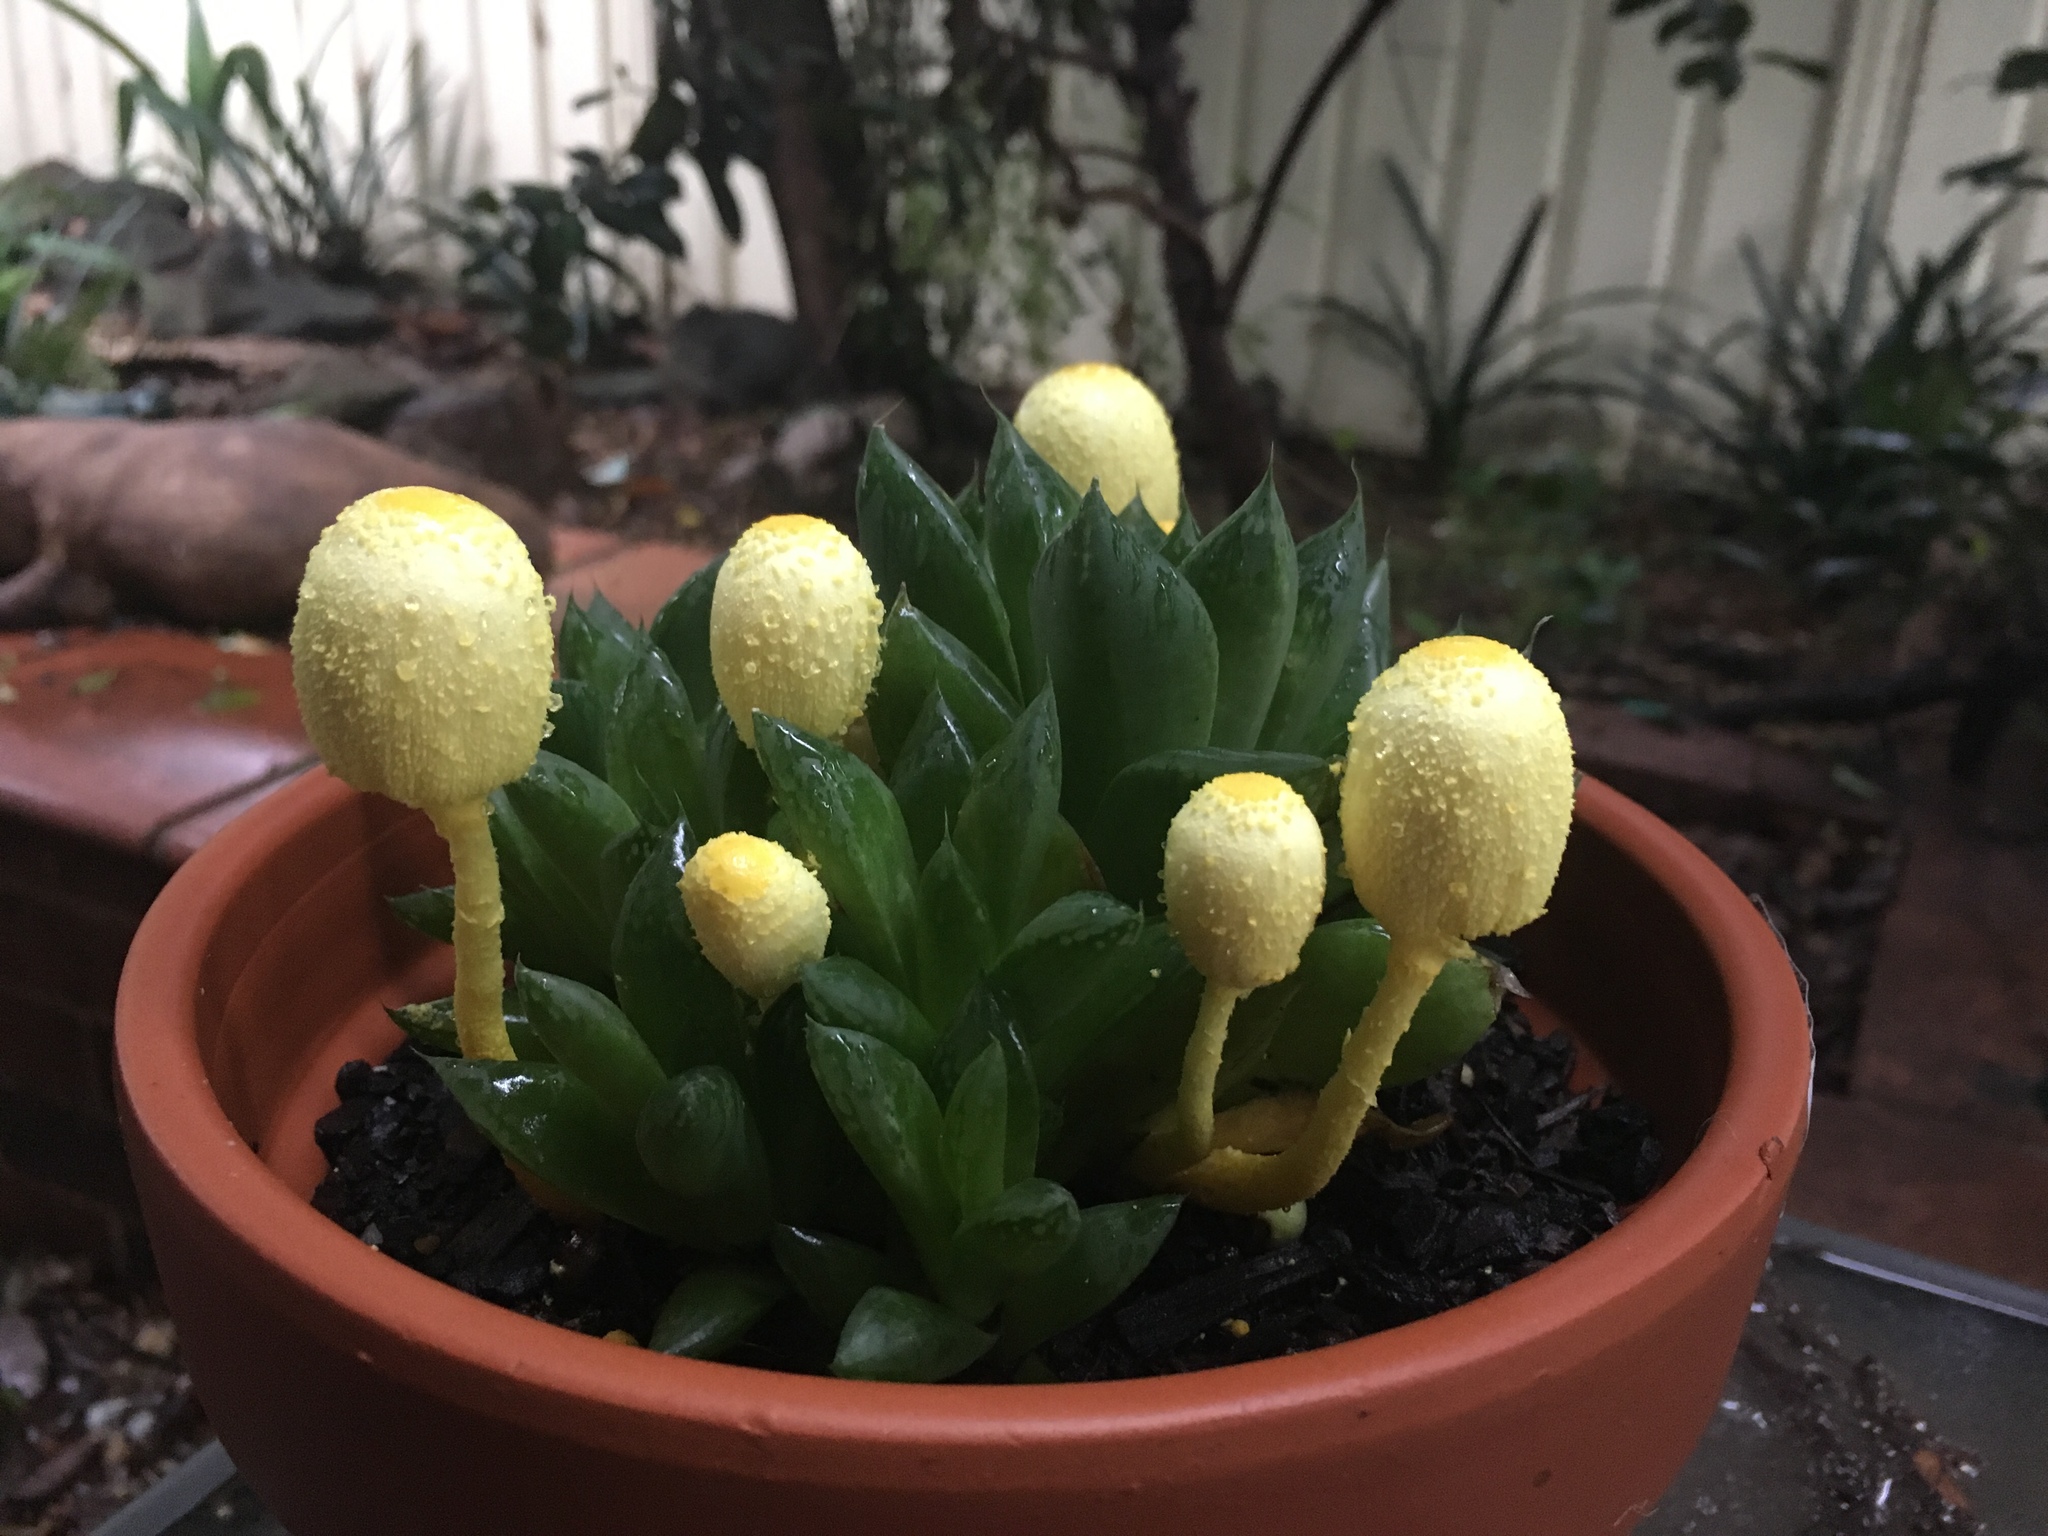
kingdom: Fungi
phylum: Basidiomycota
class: Agaricomycetes
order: Agaricales
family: Agaricaceae
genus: Leucocoprinus
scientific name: Leucocoprinus birnbaumii
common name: Plantpot dapperling
